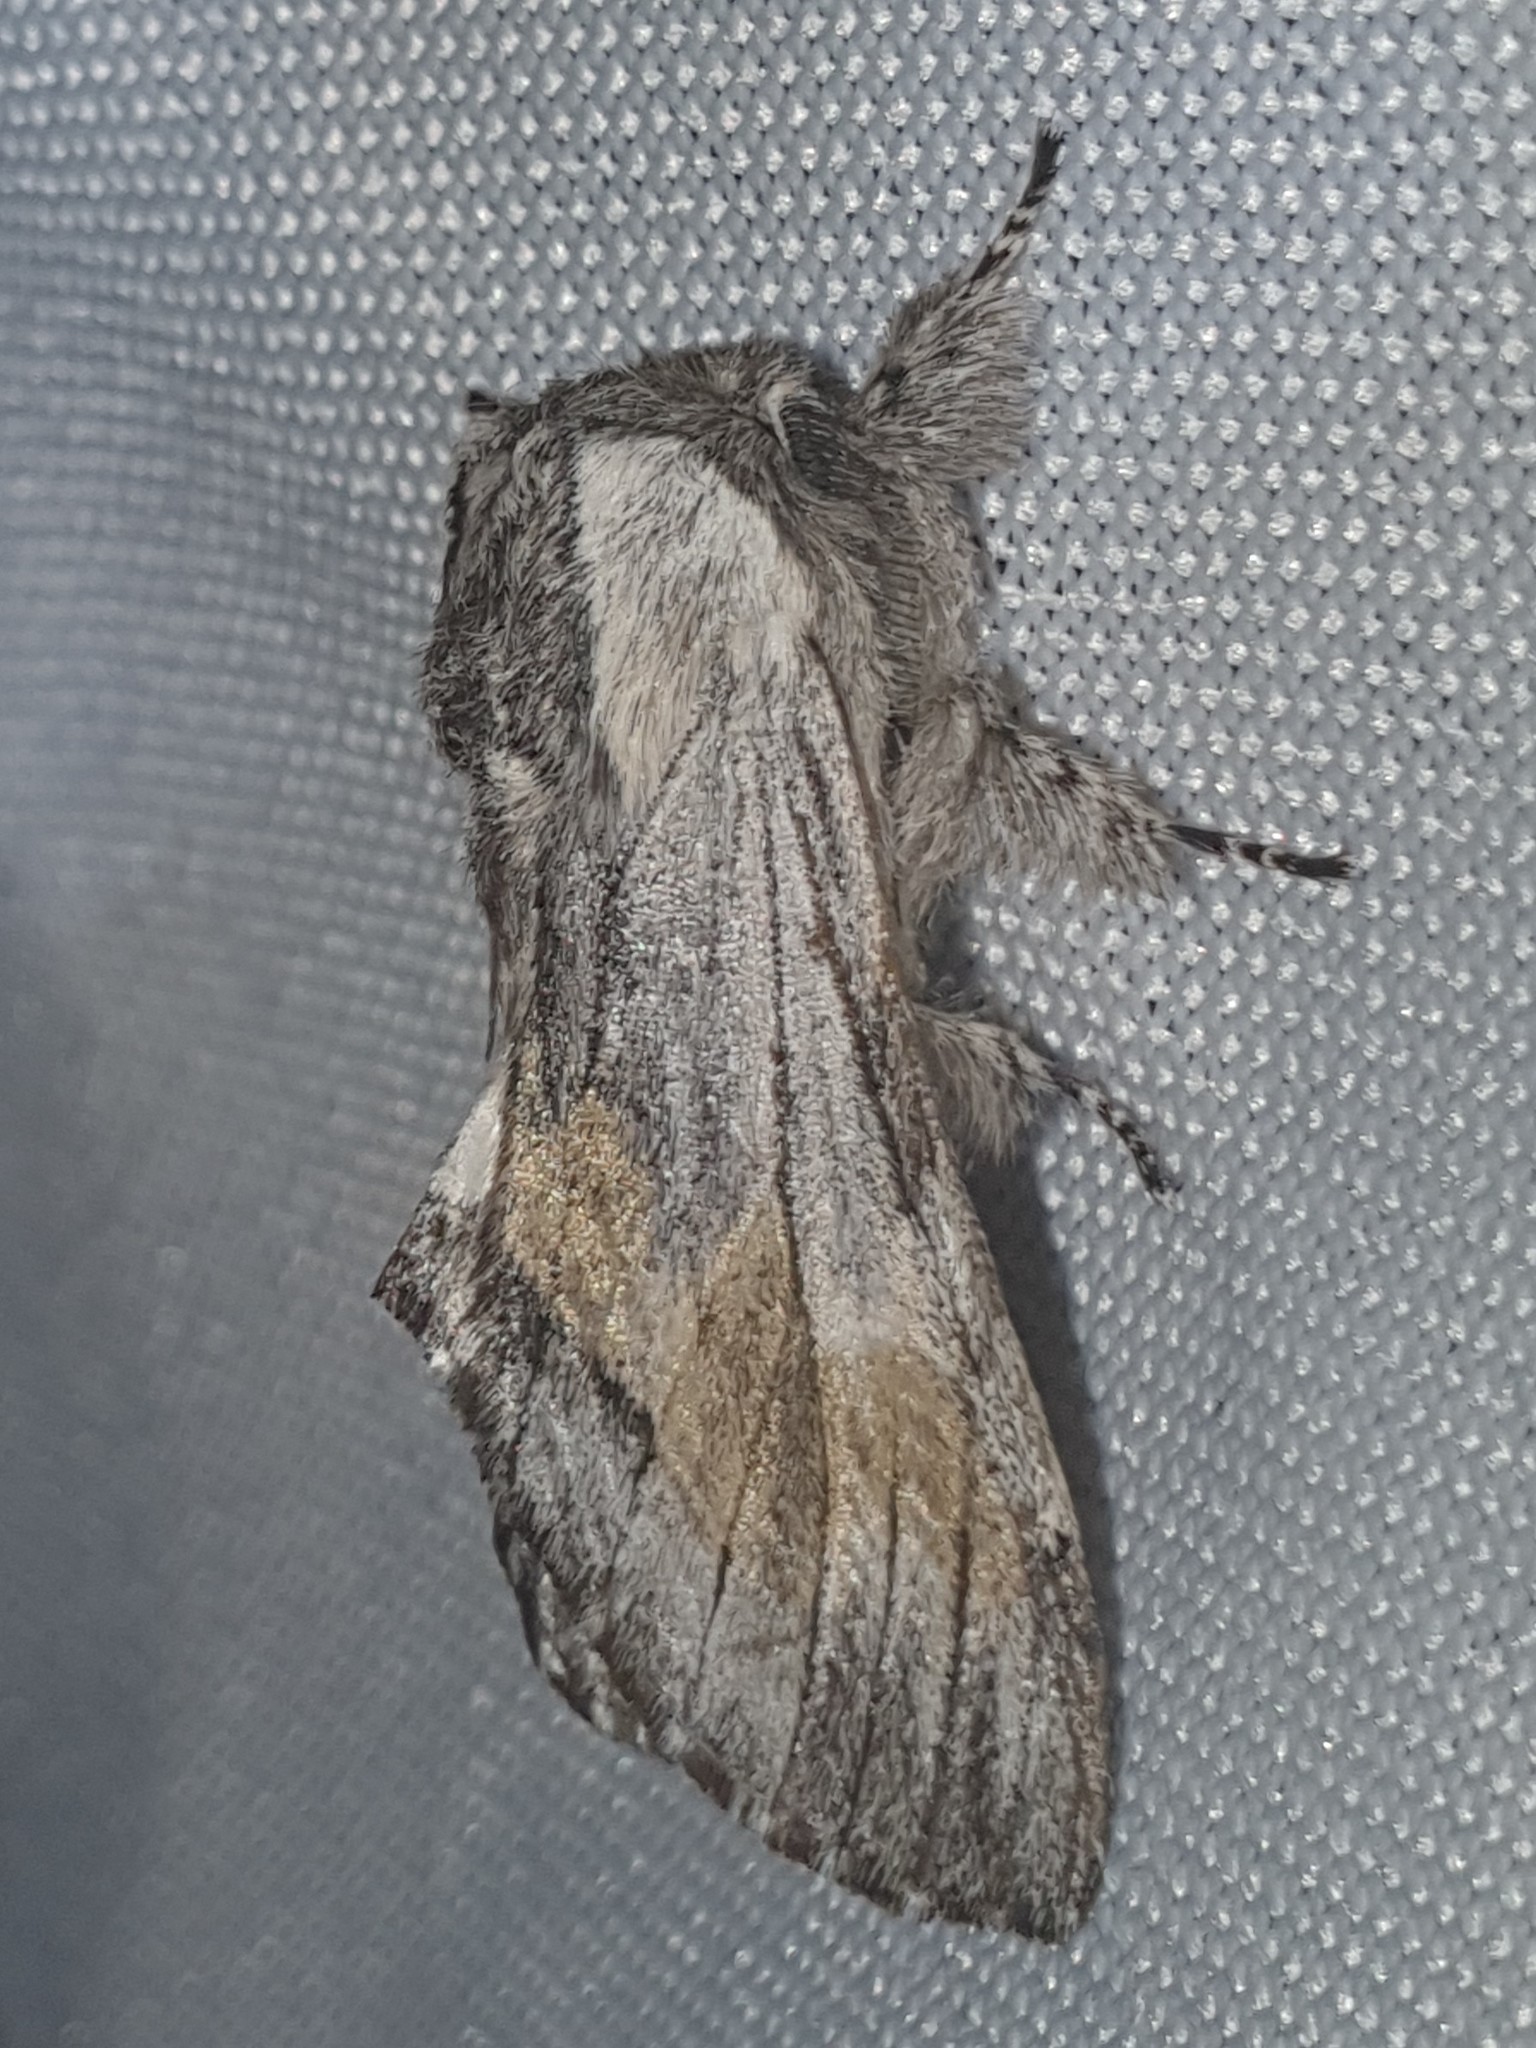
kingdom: Animalia
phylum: Arthropoda
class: Insecta
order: Lepidoptera
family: Notodontidae
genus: Harpyia
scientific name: Harpyia milhauseri
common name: Tawny prominent
